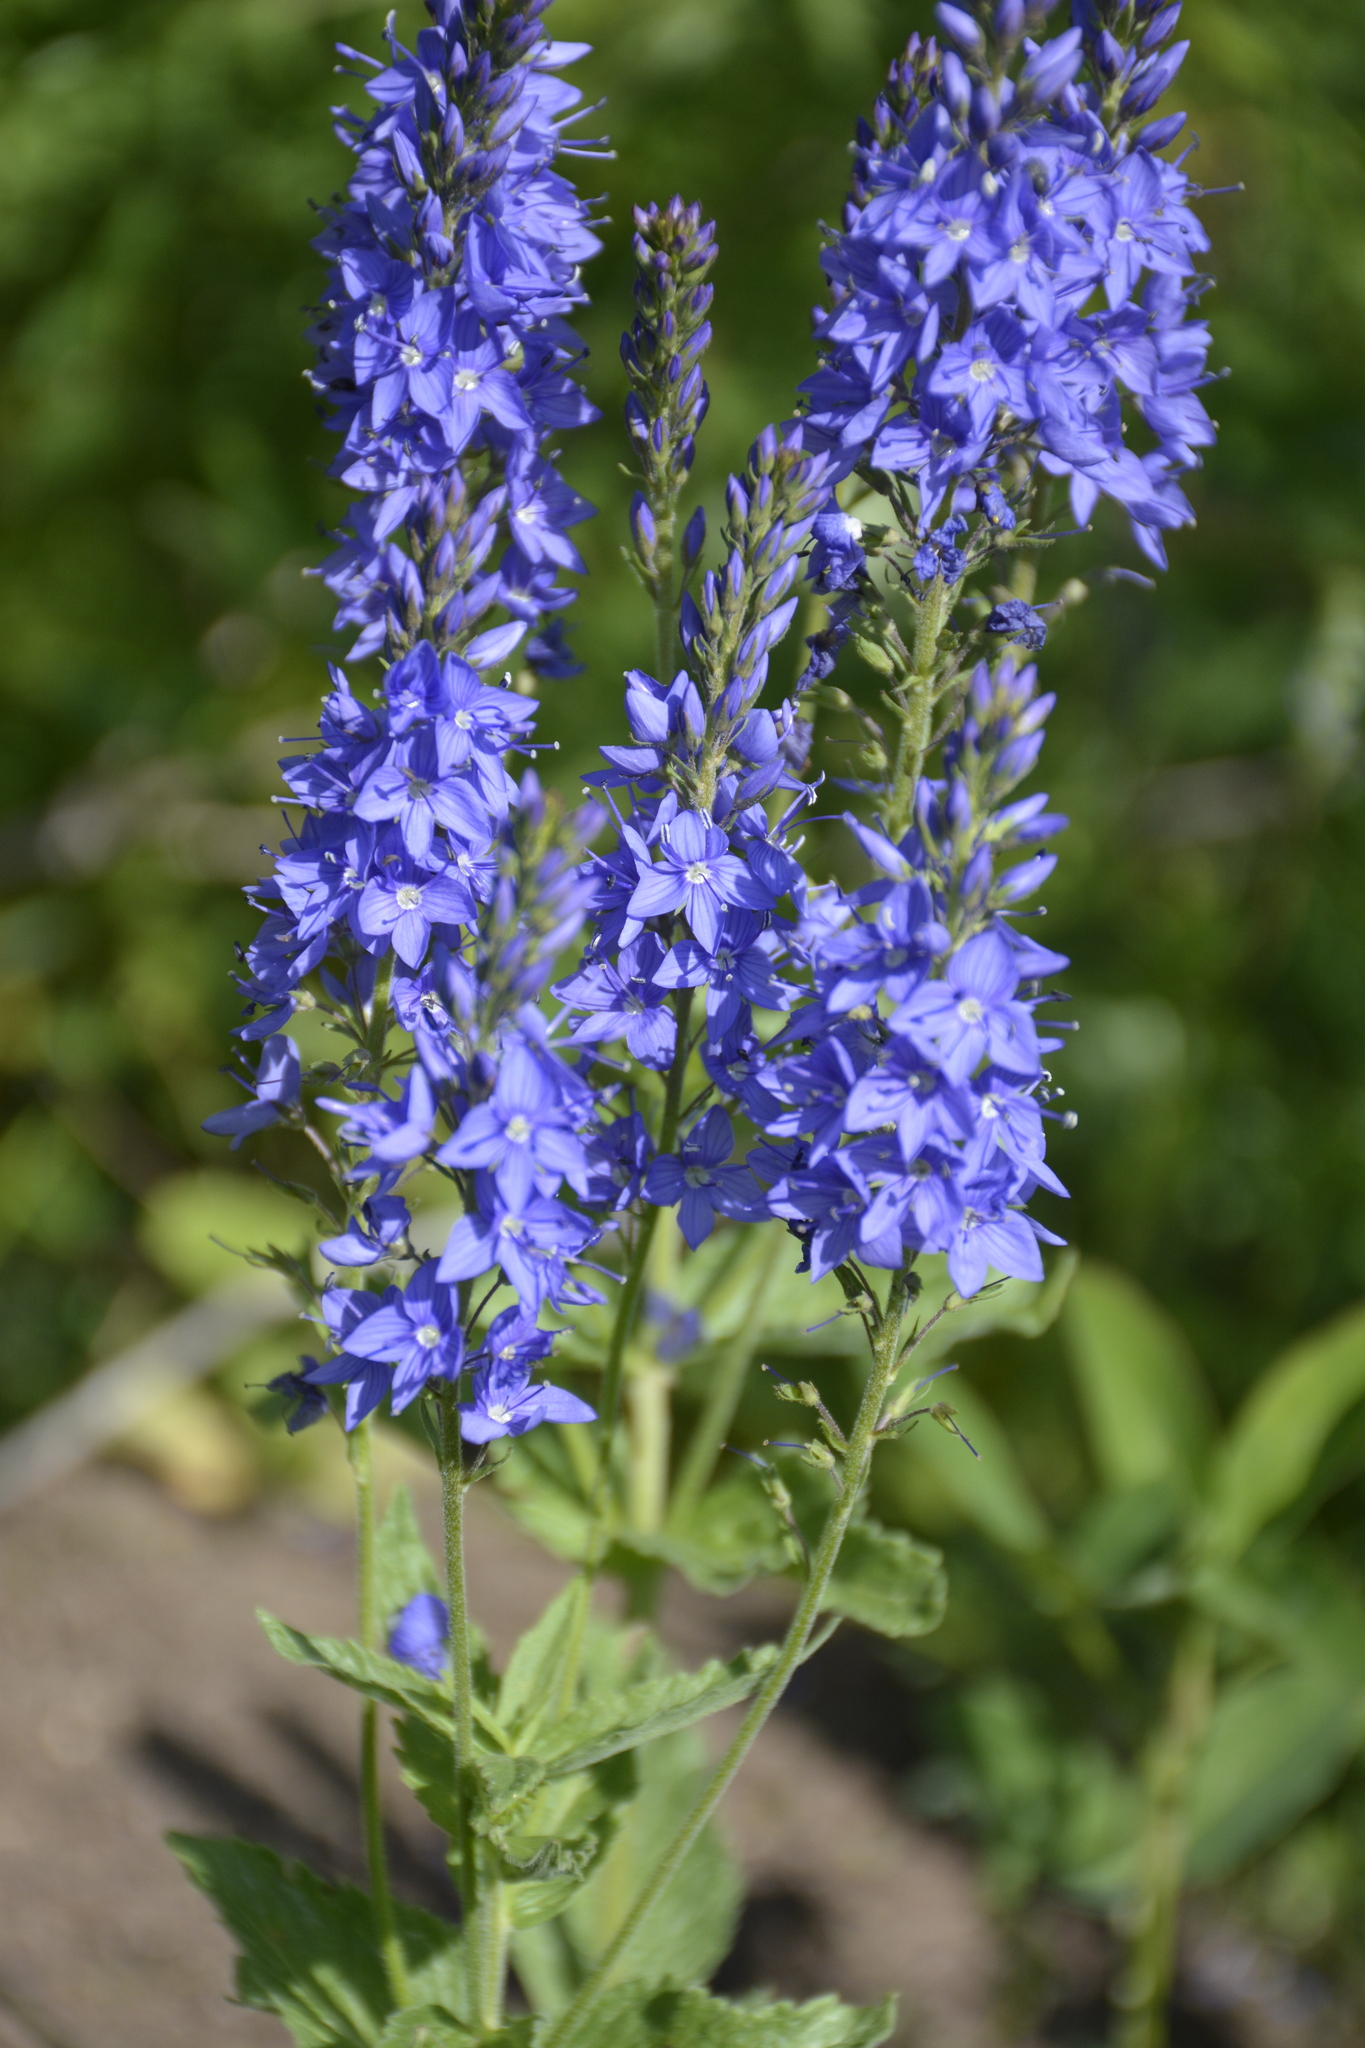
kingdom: Plantae
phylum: Tracheophyta
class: Magnoliopsida
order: Lamiales
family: Plantaginaceae
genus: Veronica
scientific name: Veronica teucrium
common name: Large speedwell
